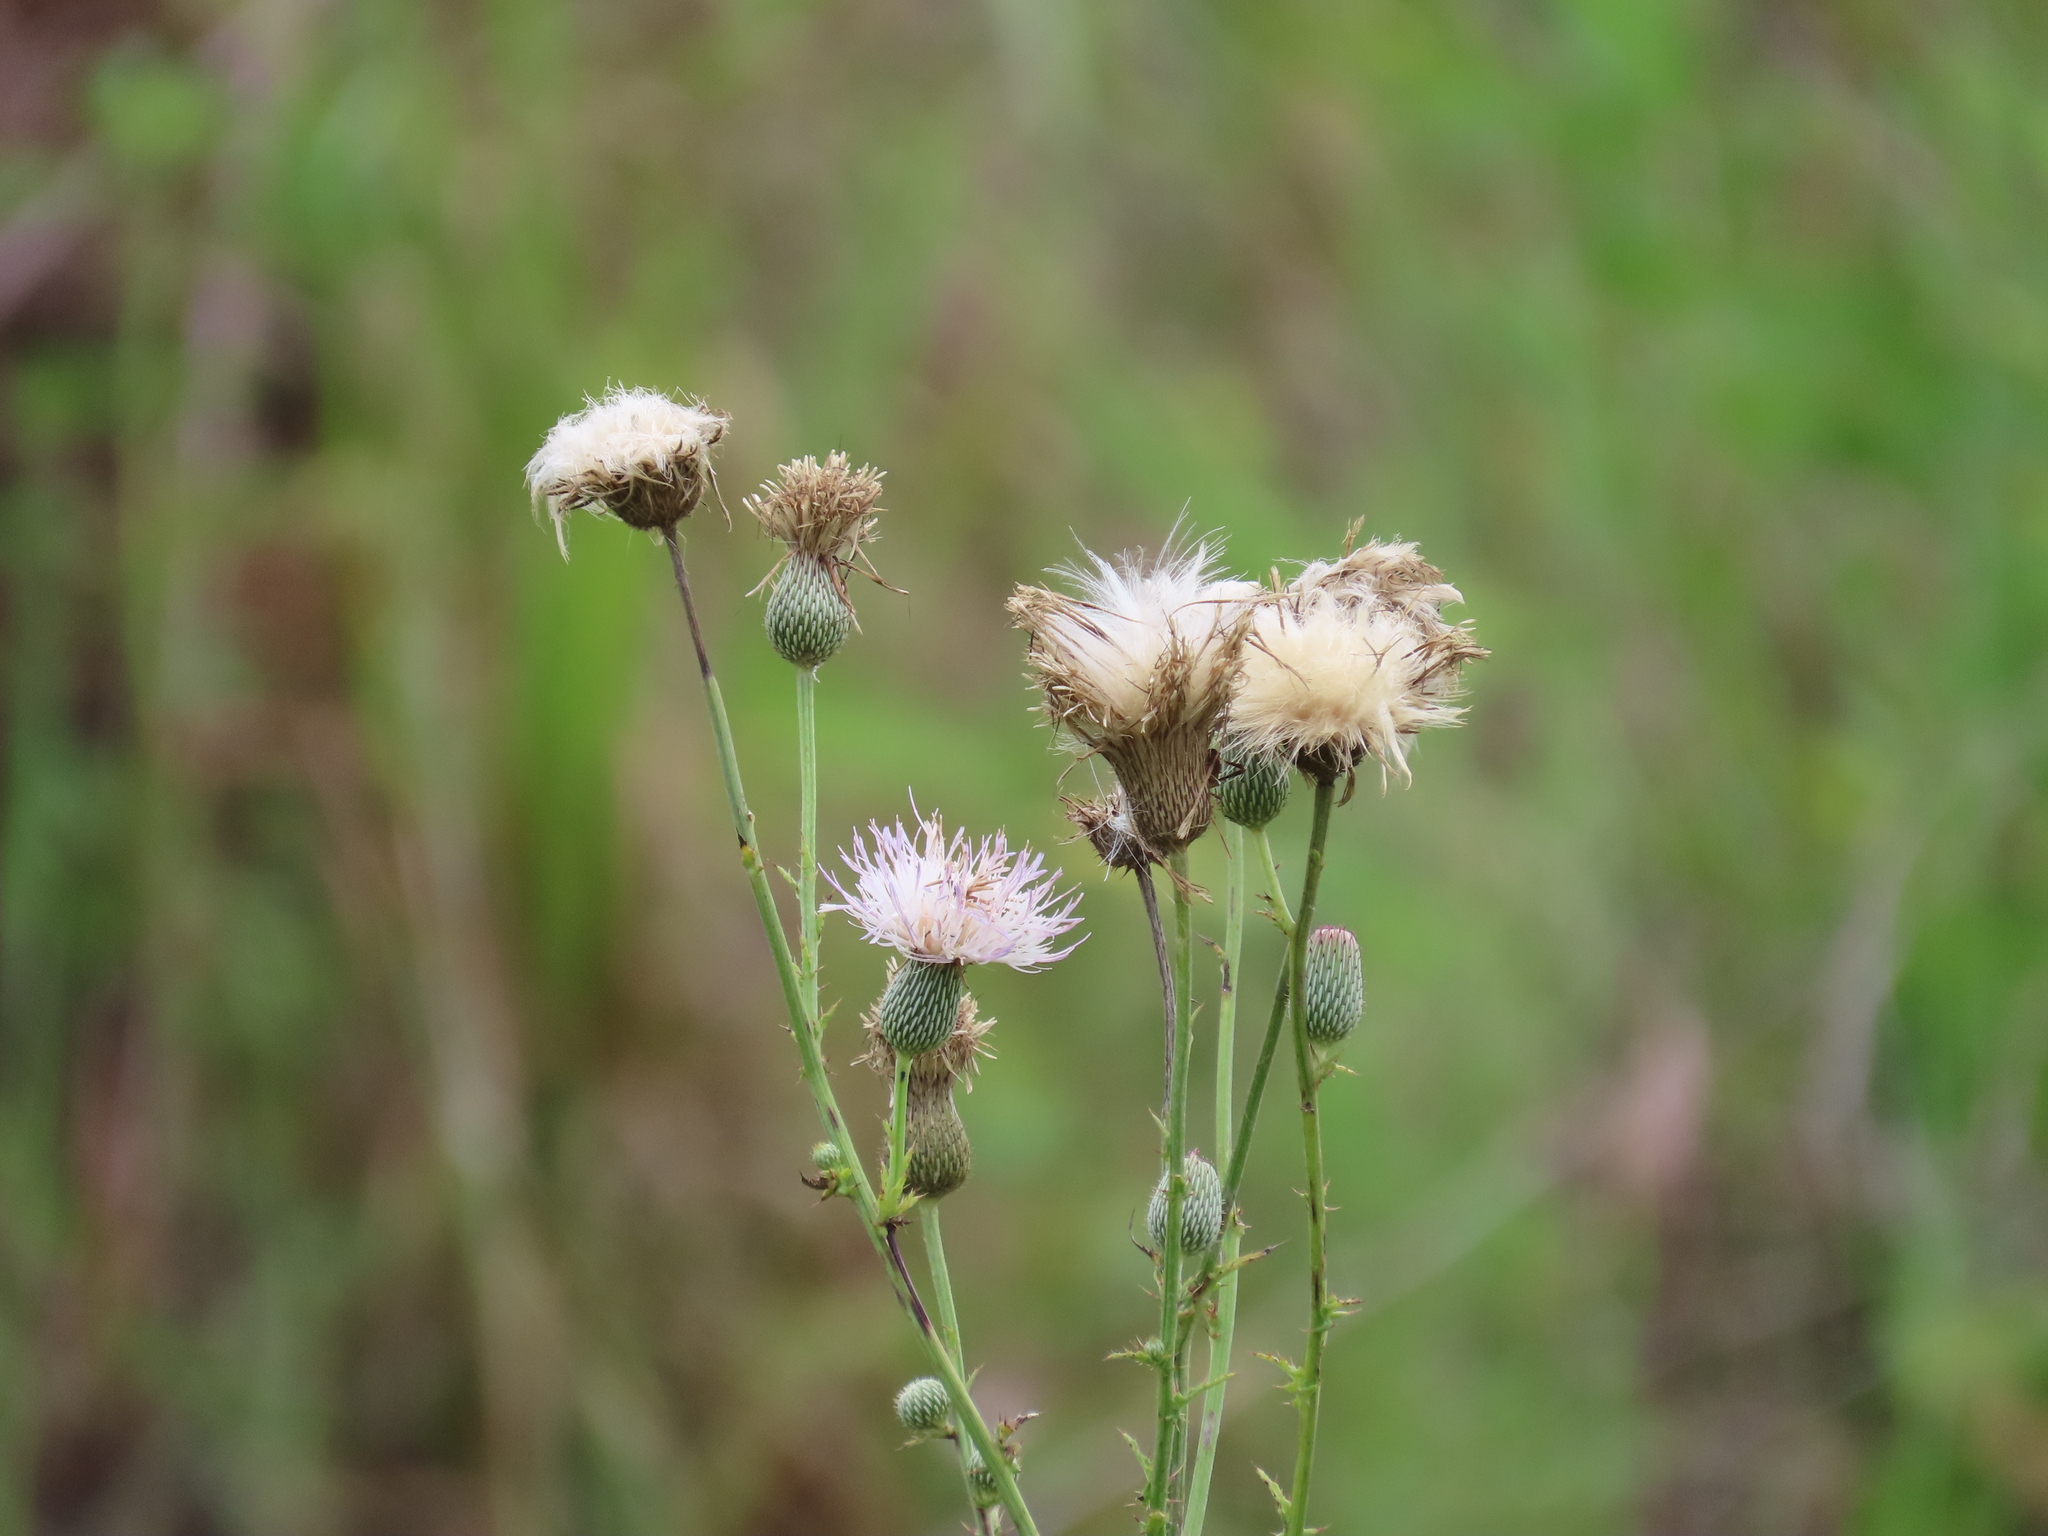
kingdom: Plantae
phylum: Tracheophyta
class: Magnoliopsida
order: Asterales
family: Asteraceae
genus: Cirsium
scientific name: Cirsium nuttalii
